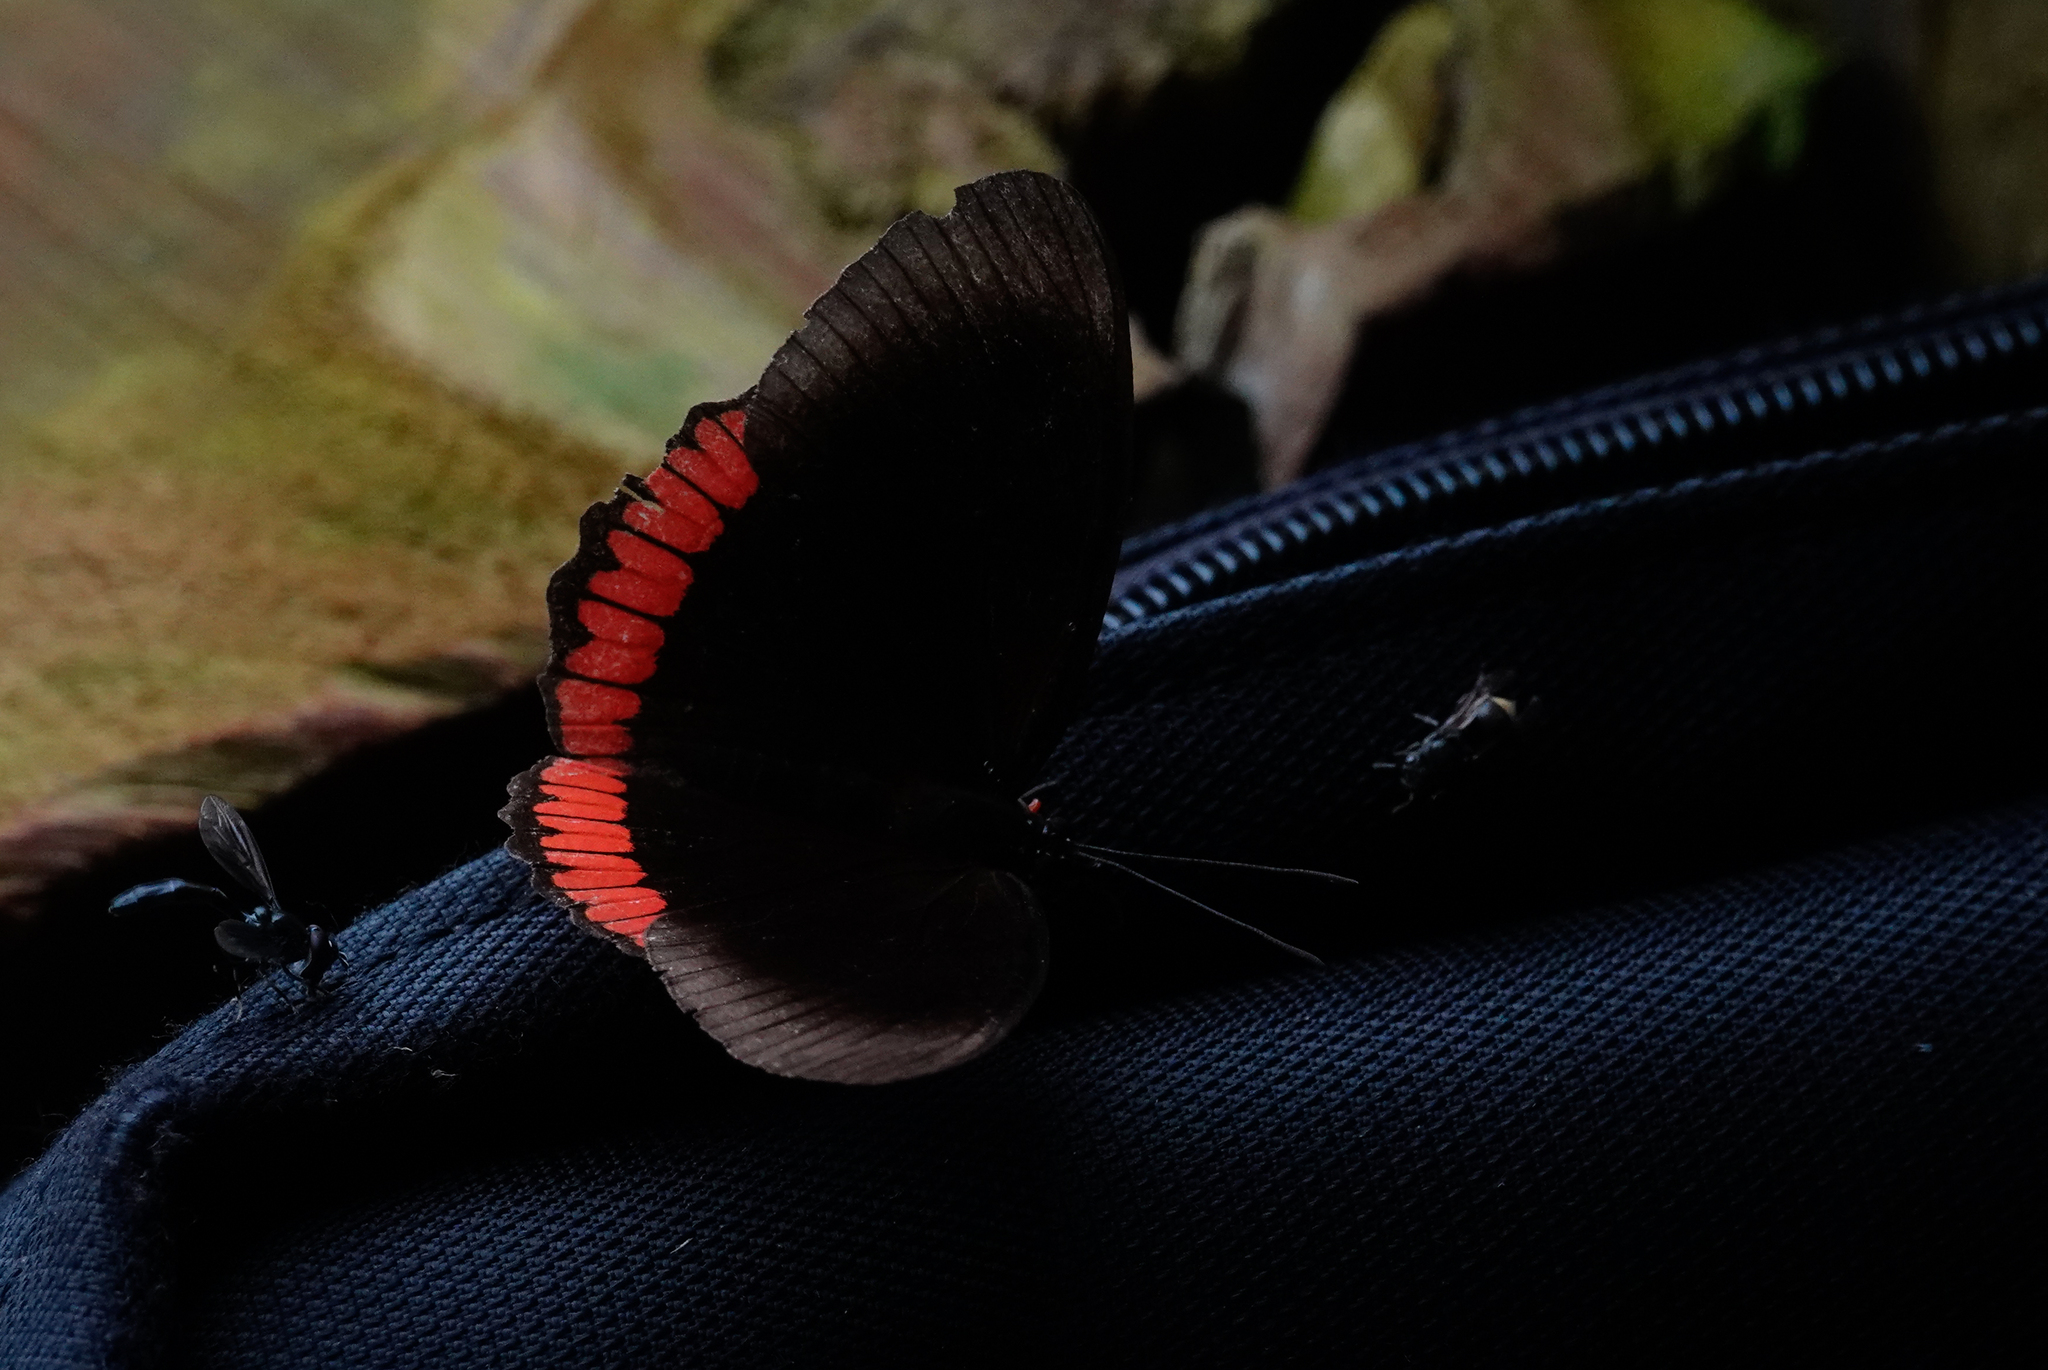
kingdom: Animalia
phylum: Arthropoda
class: Insecta
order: Lepidoptera
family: Sesiidae
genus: Sesia
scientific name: Sesia Biblis hyperia
